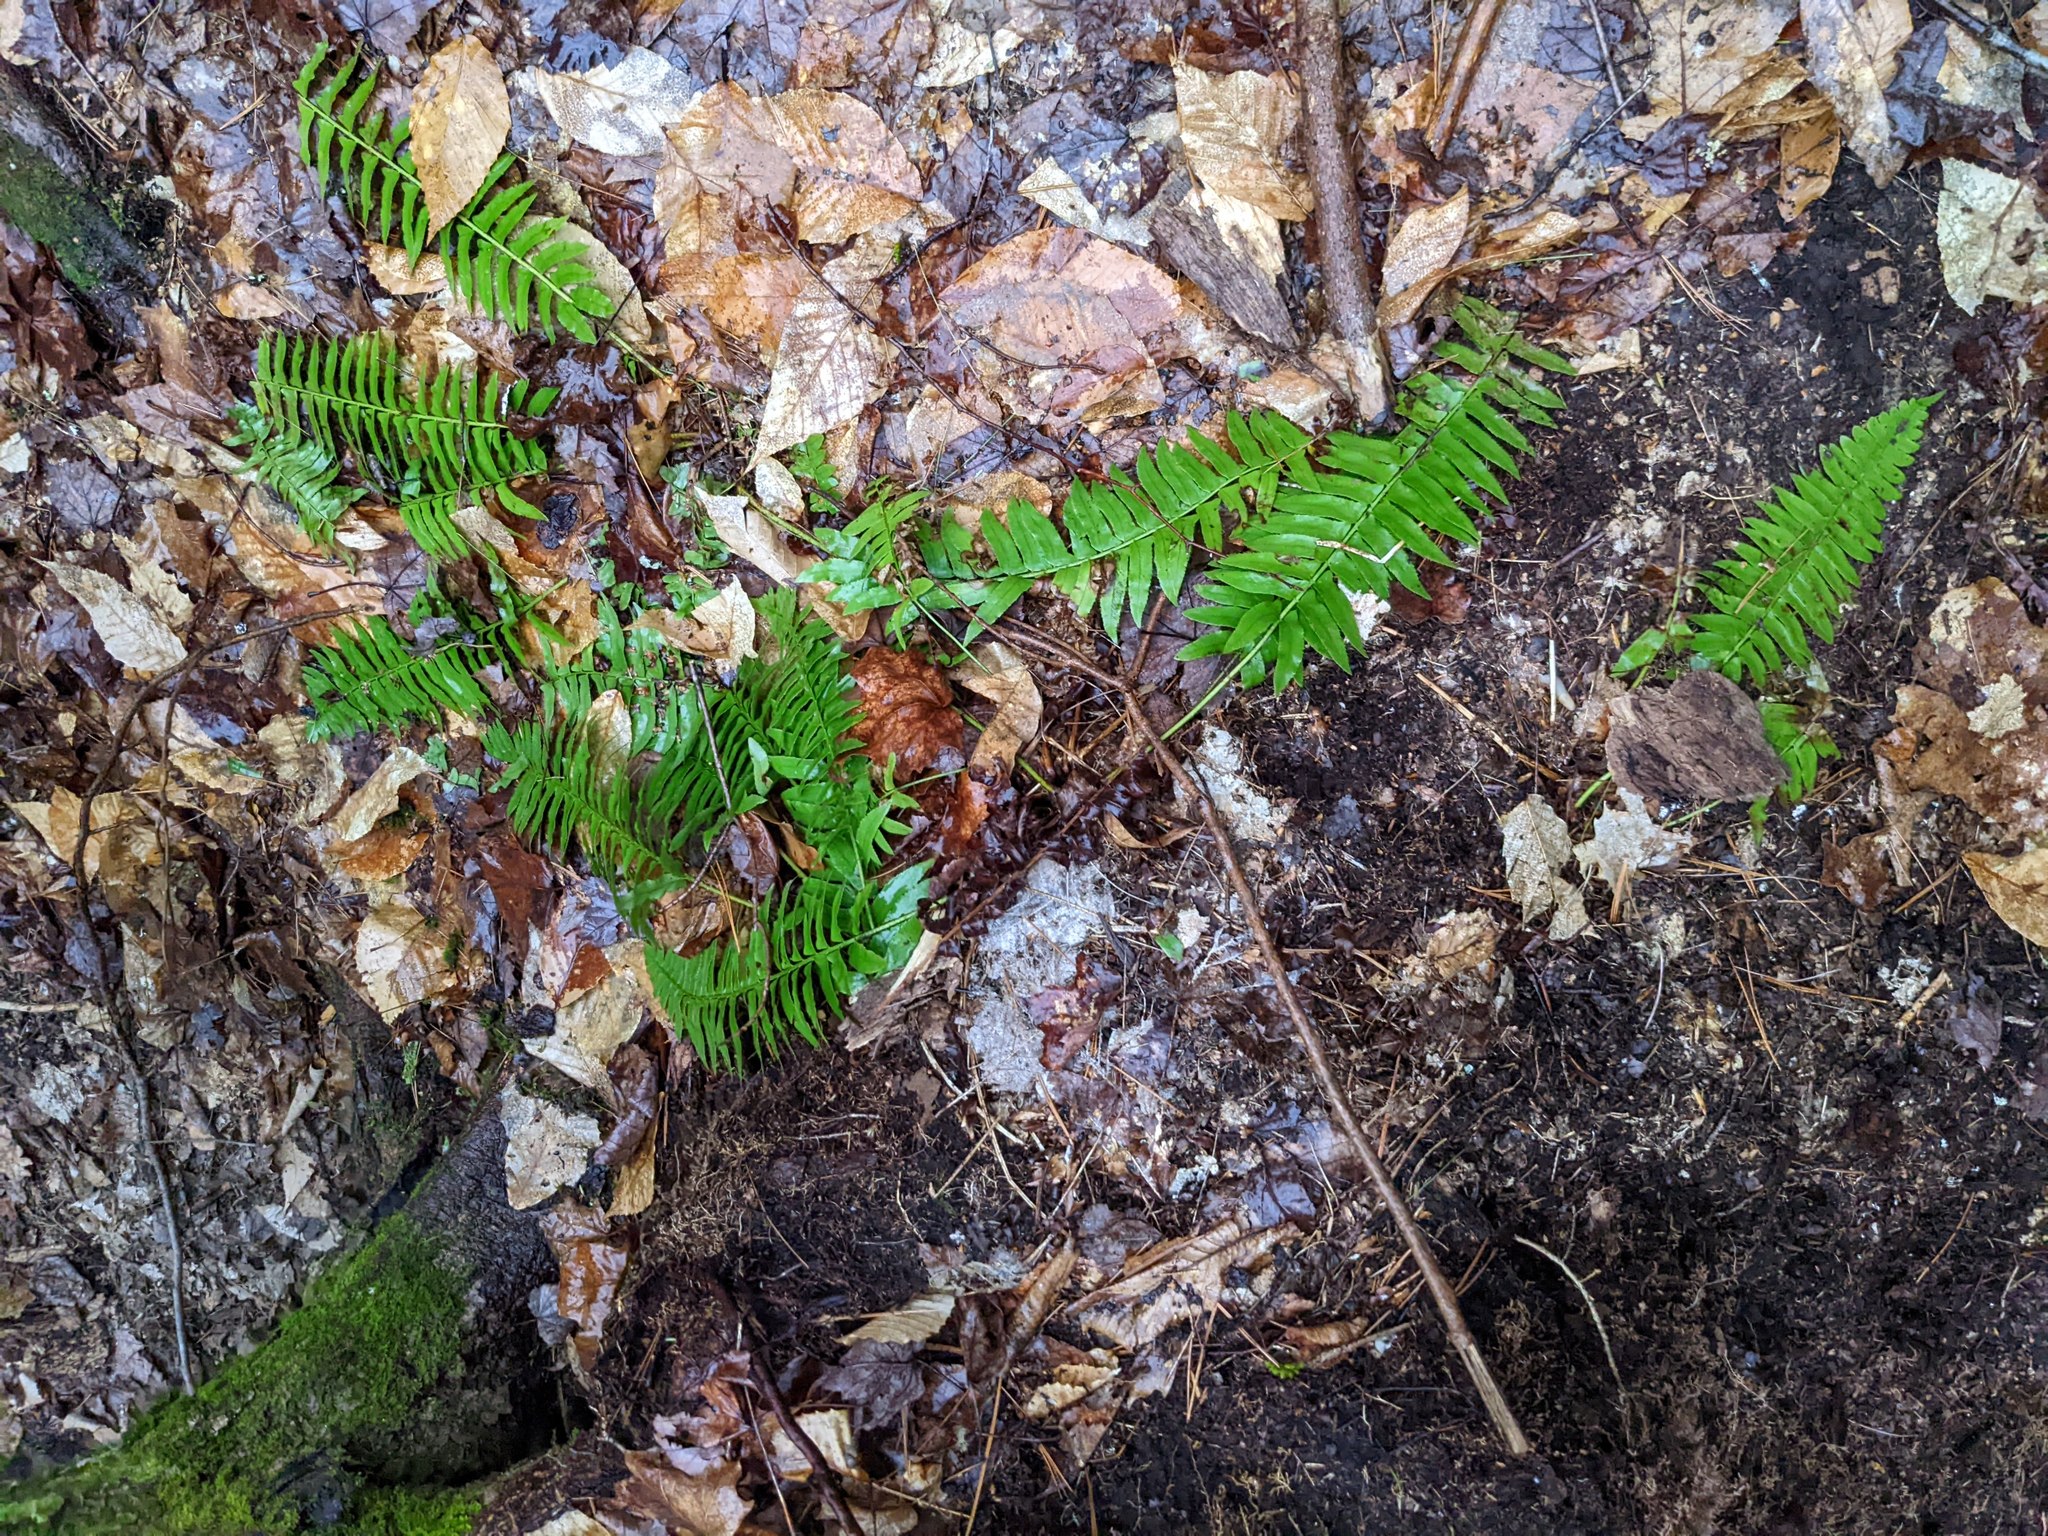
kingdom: Plantae
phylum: Tracheophyta
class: Polypodiopsida
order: Polypodiales
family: Dryopteridaceae
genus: Polystichum
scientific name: Polystichum acrostichoides
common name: Christmas fern
